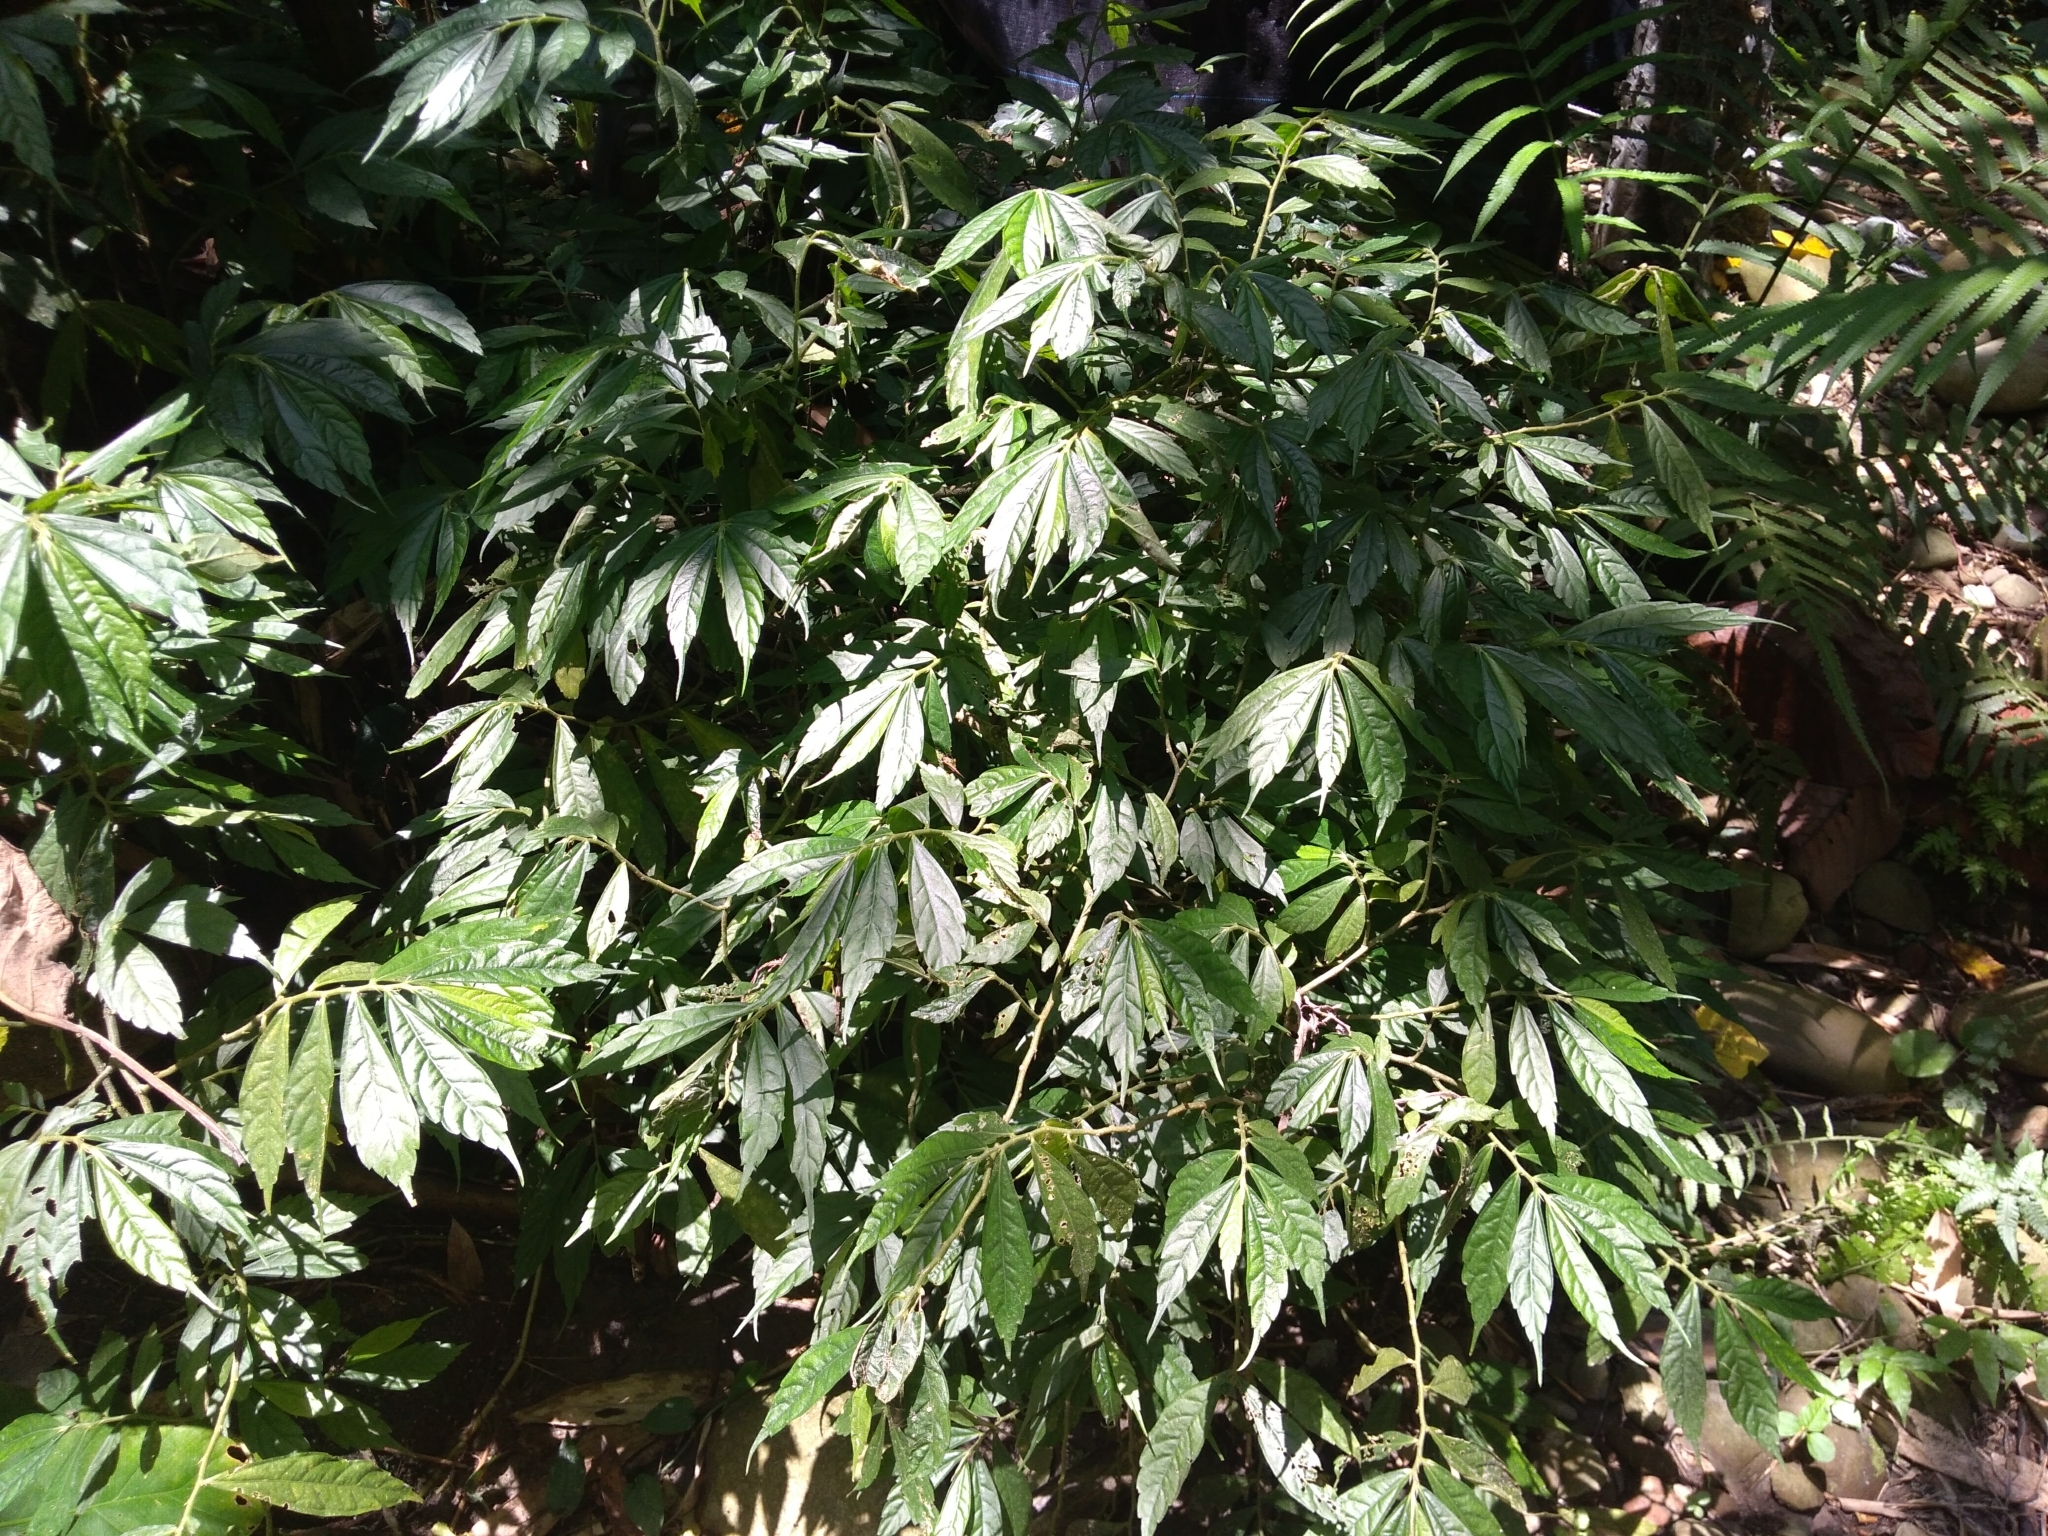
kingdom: Plantae
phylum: Tracheophyta
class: Magnoliopsida
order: Rosales
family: Urticaceae
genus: Elatostema
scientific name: Elatostema lineolatum
